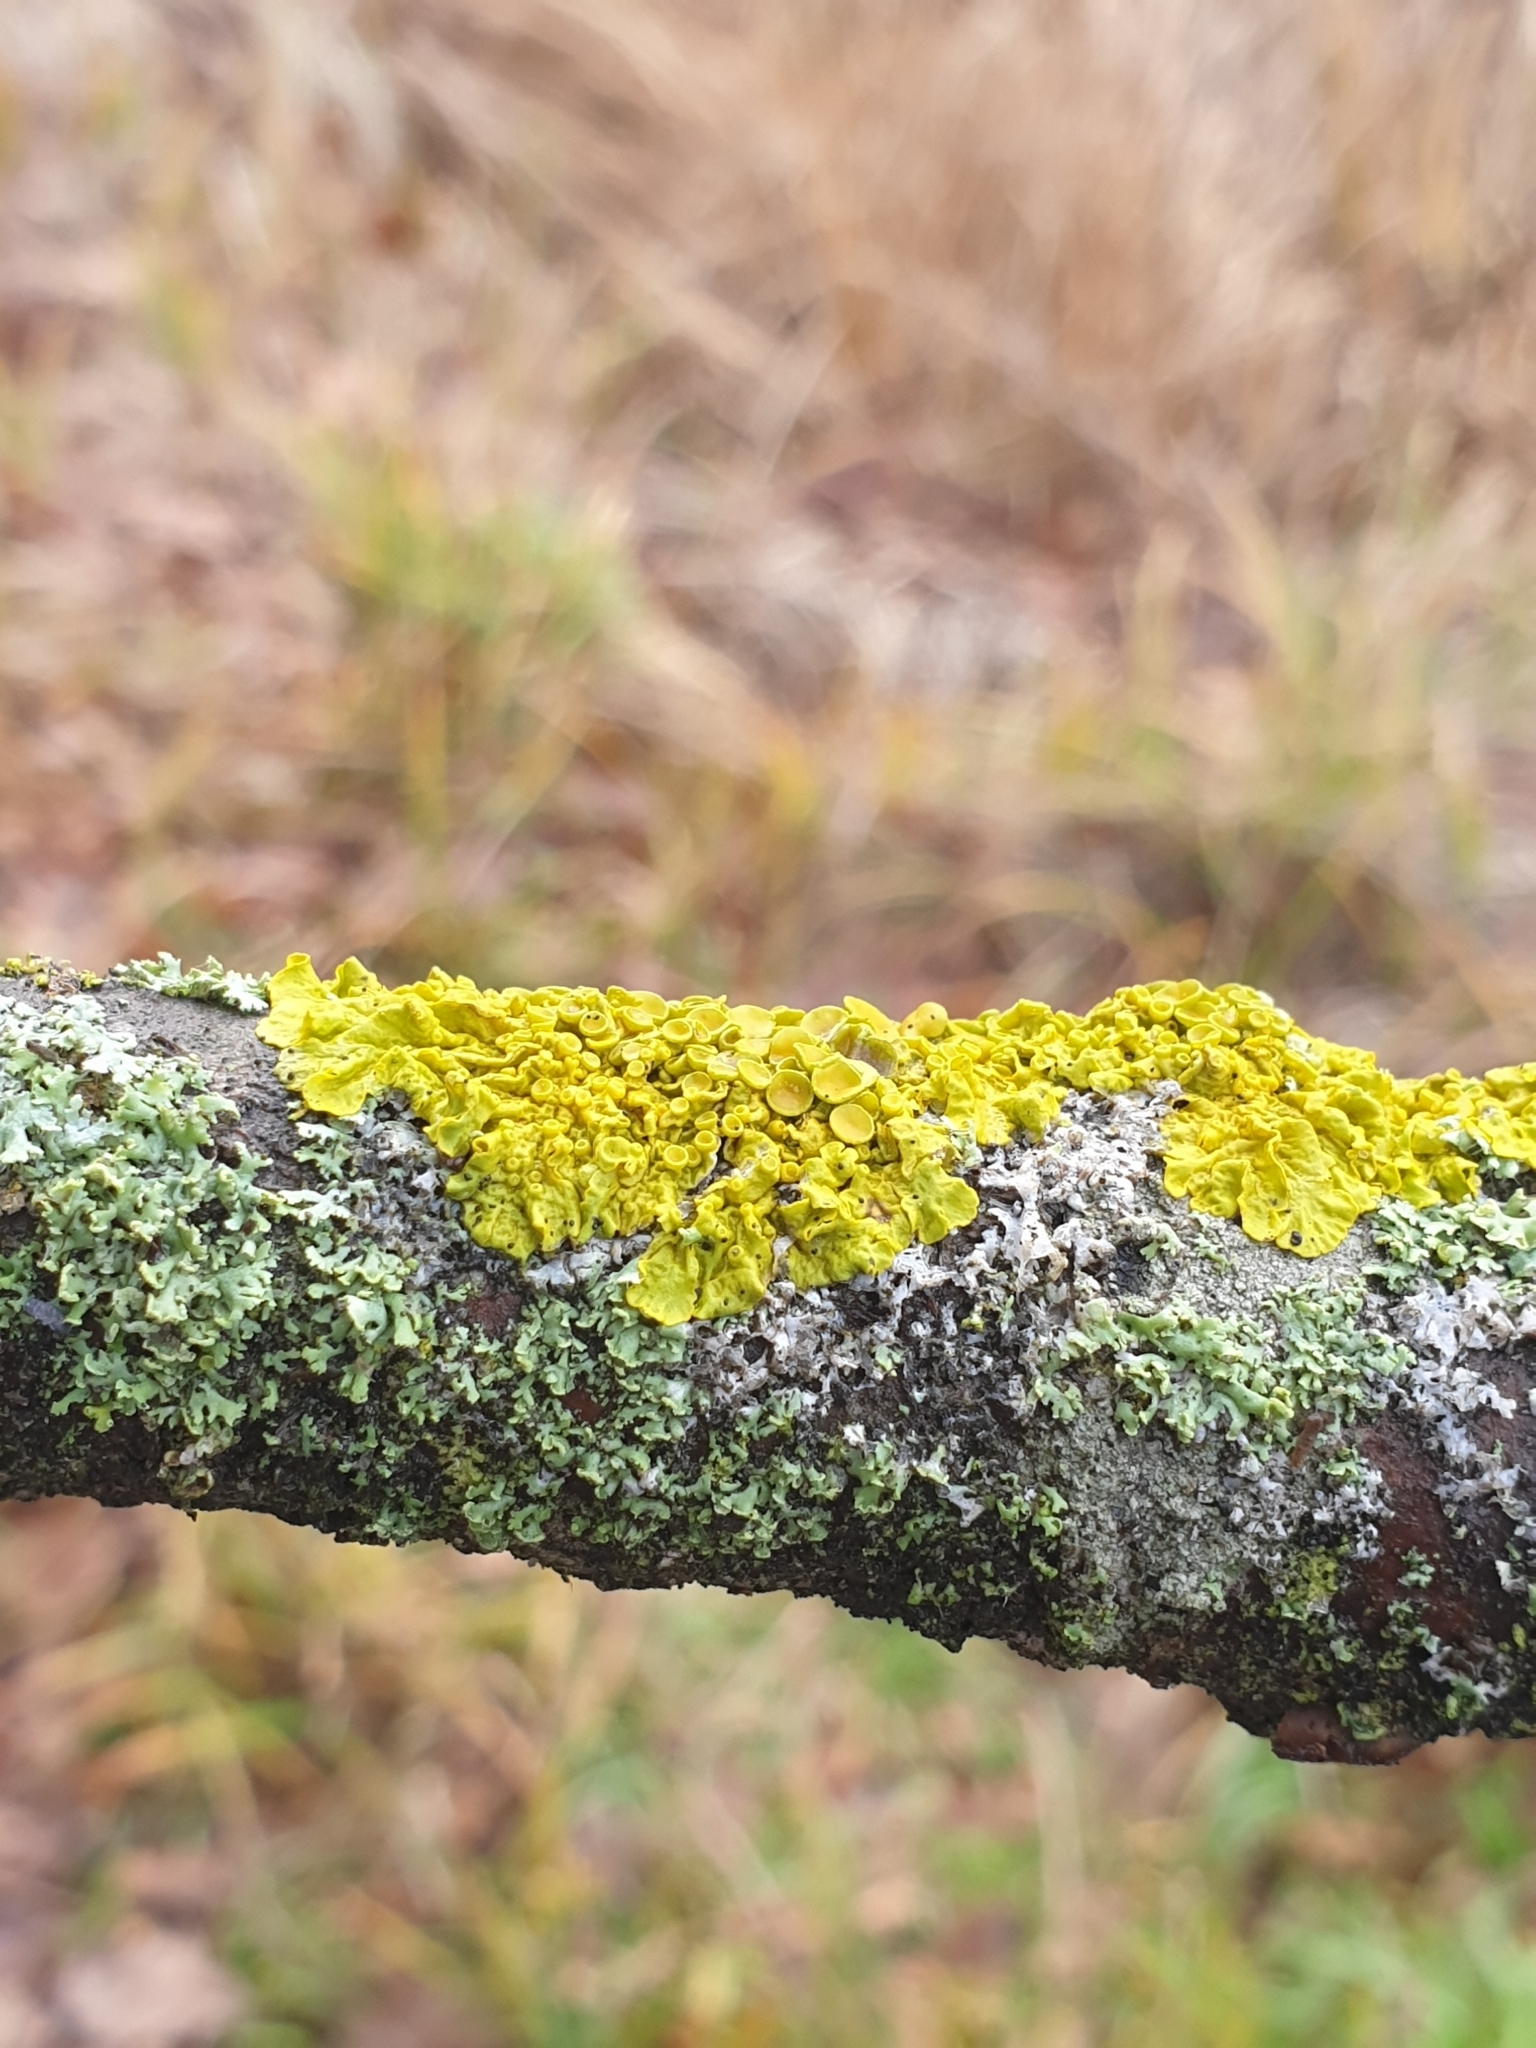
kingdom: Fungi
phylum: Ascomycota
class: Lecanoromycetes
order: Teloschistales
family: Teloschistaceae
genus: Xanthoria
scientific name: Xanthoria parietina
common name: Common orange lichen
